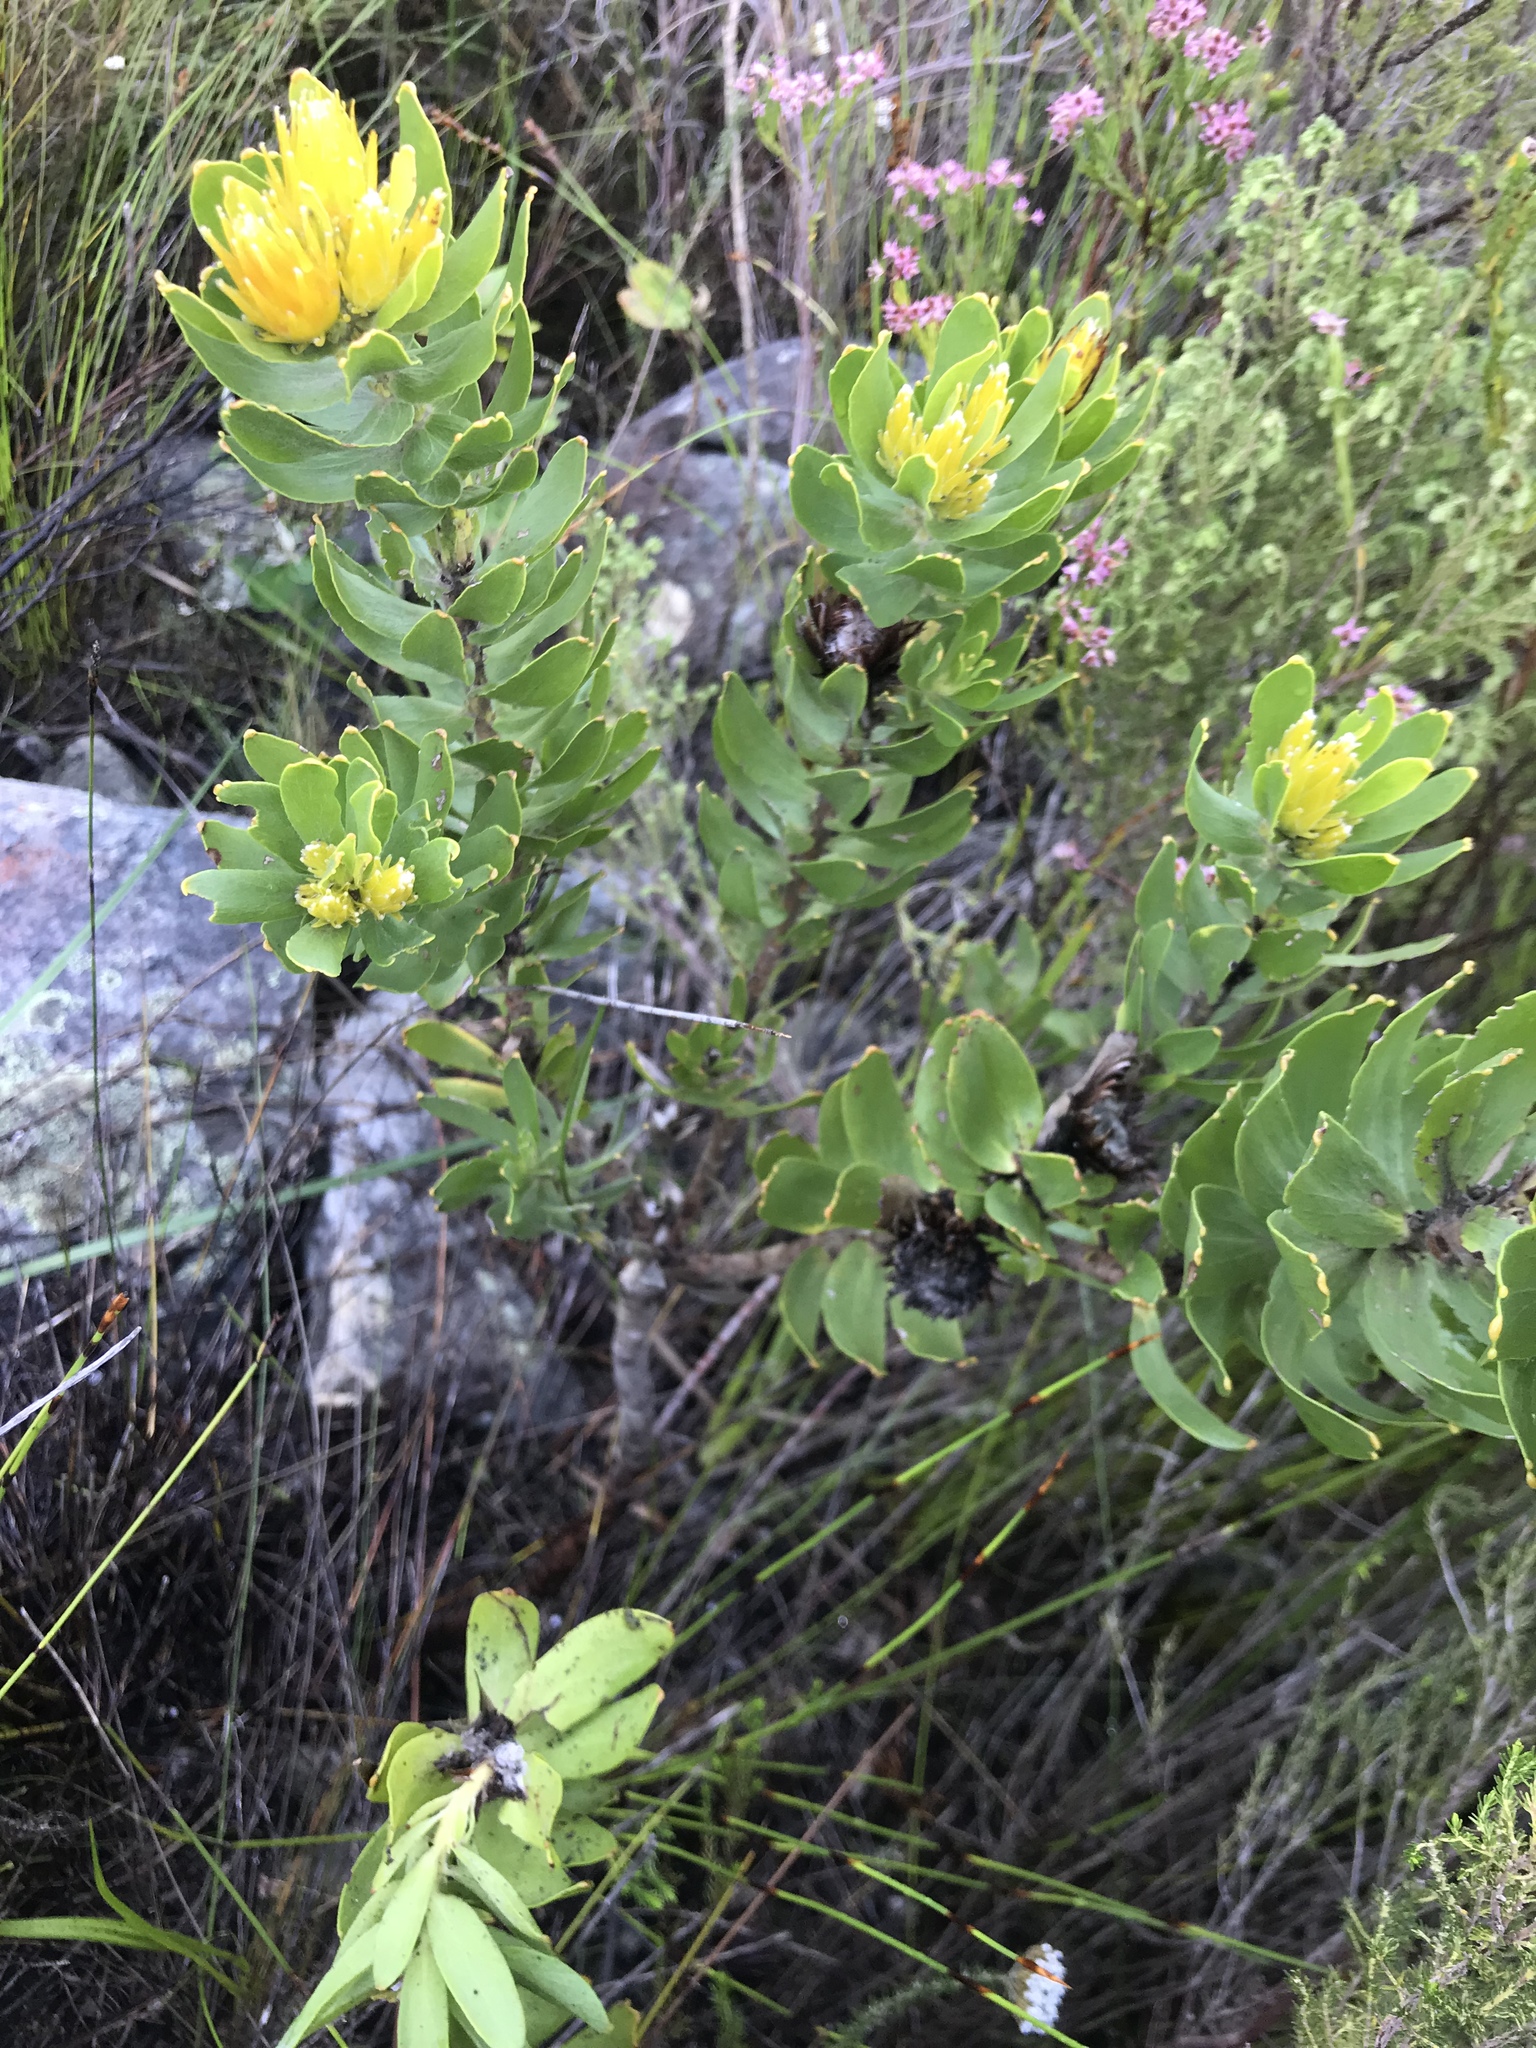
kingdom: Plantae
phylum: Tracheophyta
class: Magnoliopsida
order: Proteales
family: Proteaceae
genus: Leucospermum
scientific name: Leucospermum oleifolium
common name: Matches
